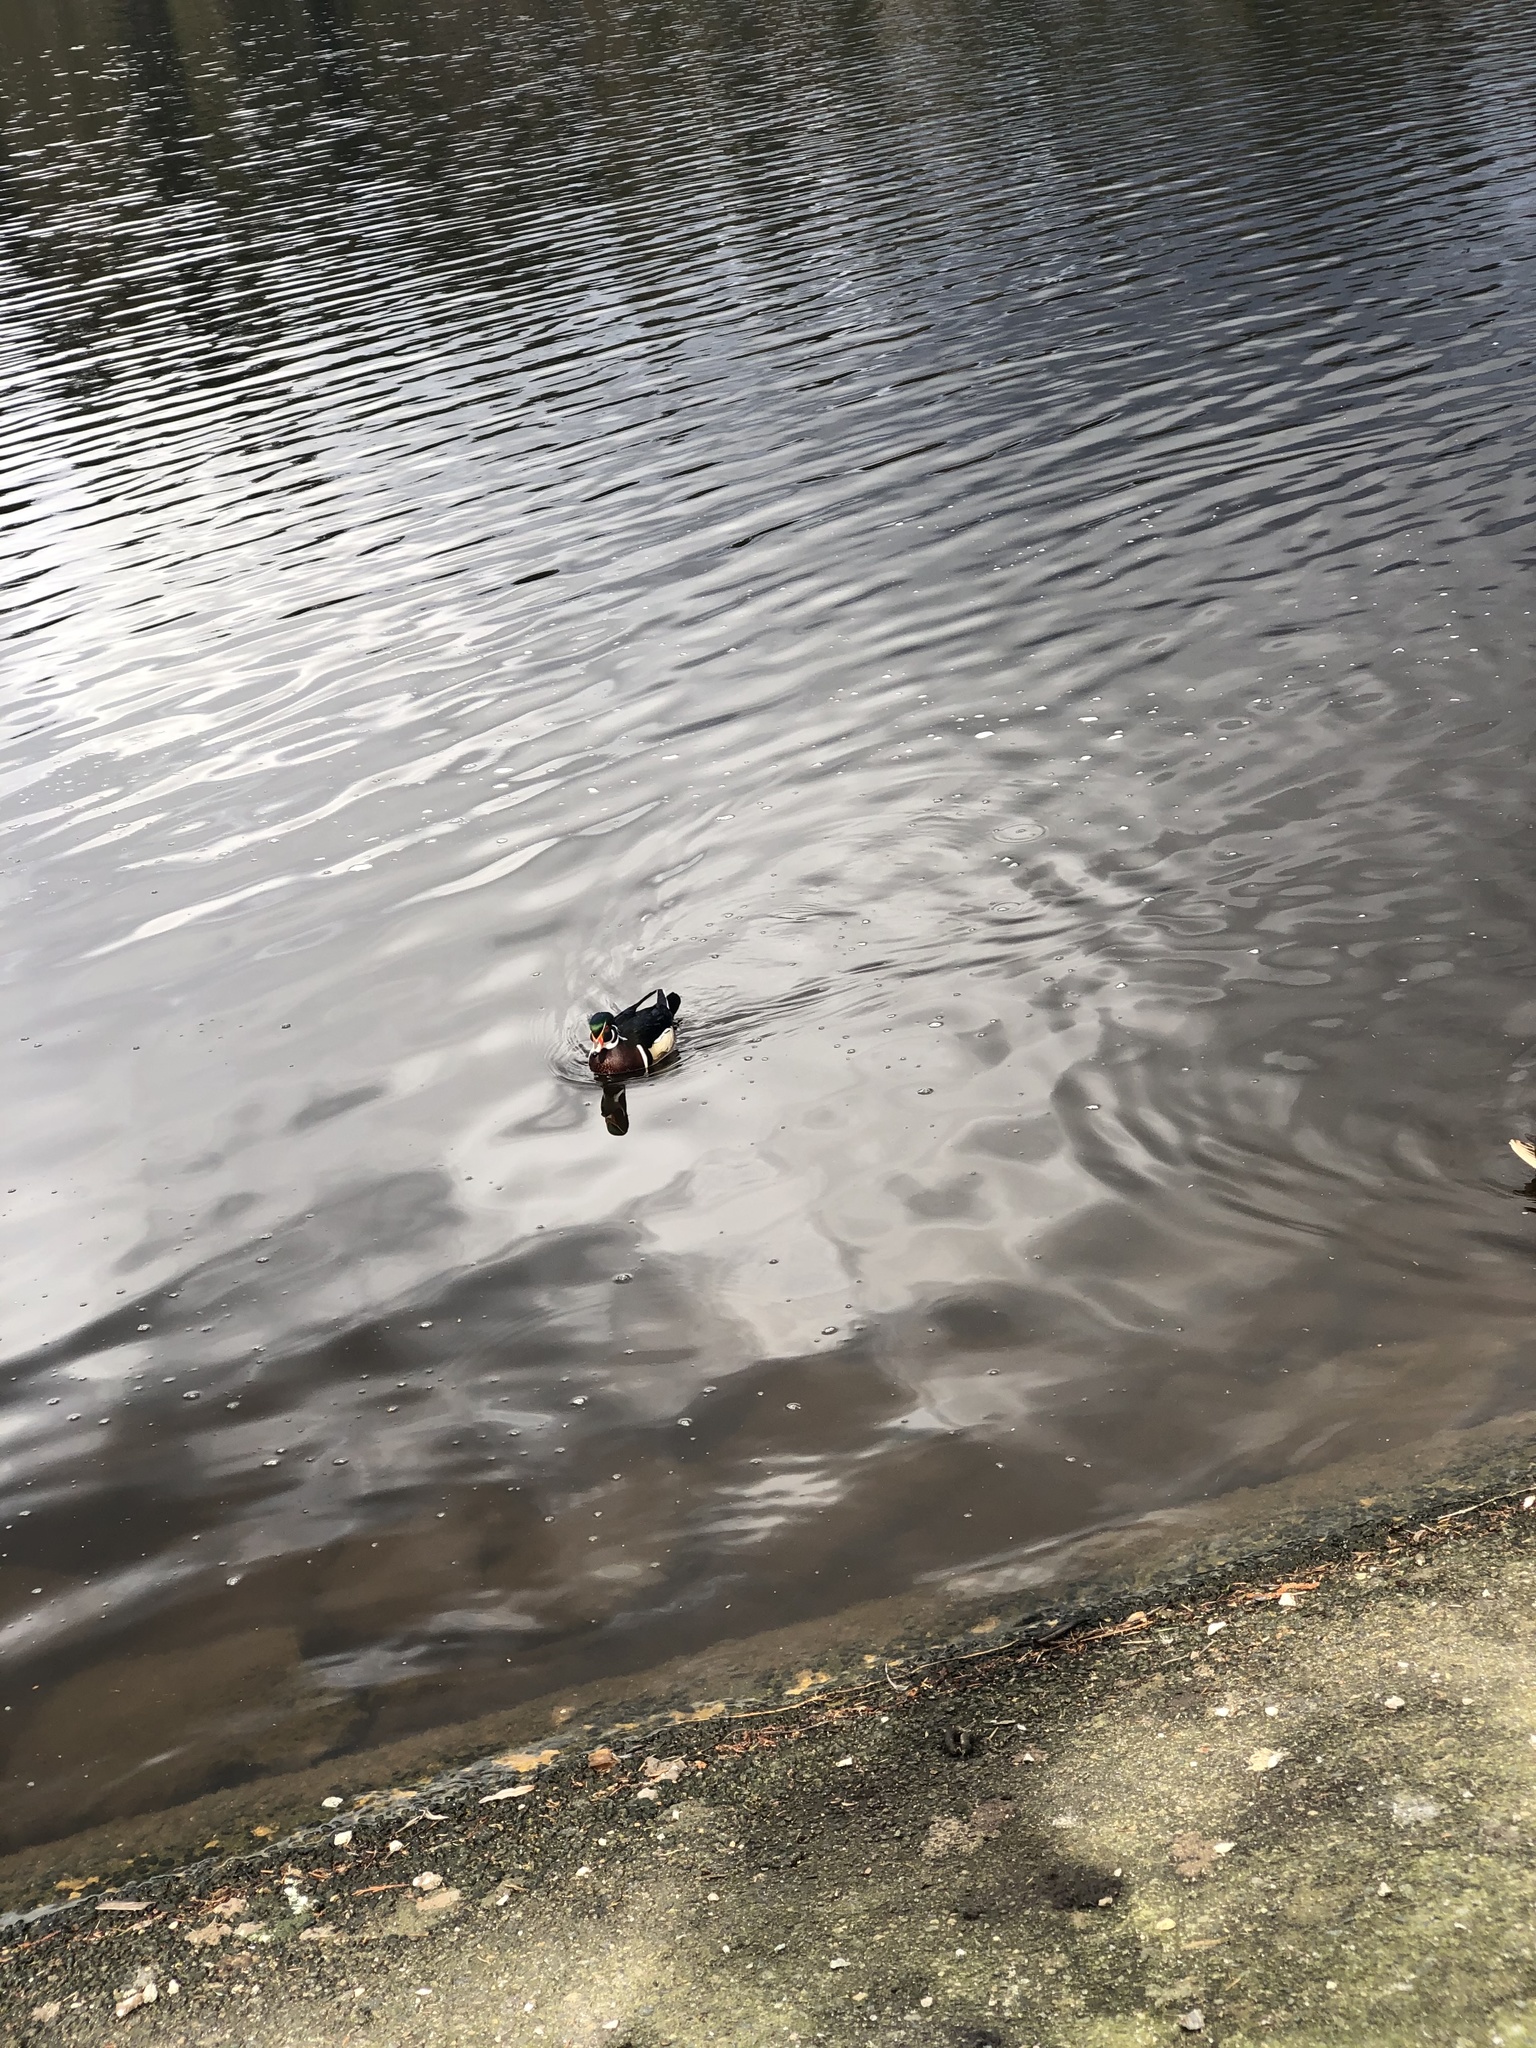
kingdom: Animalia
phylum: Chordata
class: Aves
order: Anseriformes
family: Anatidae
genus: Aix
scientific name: Aix sponsa
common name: Wood duck
